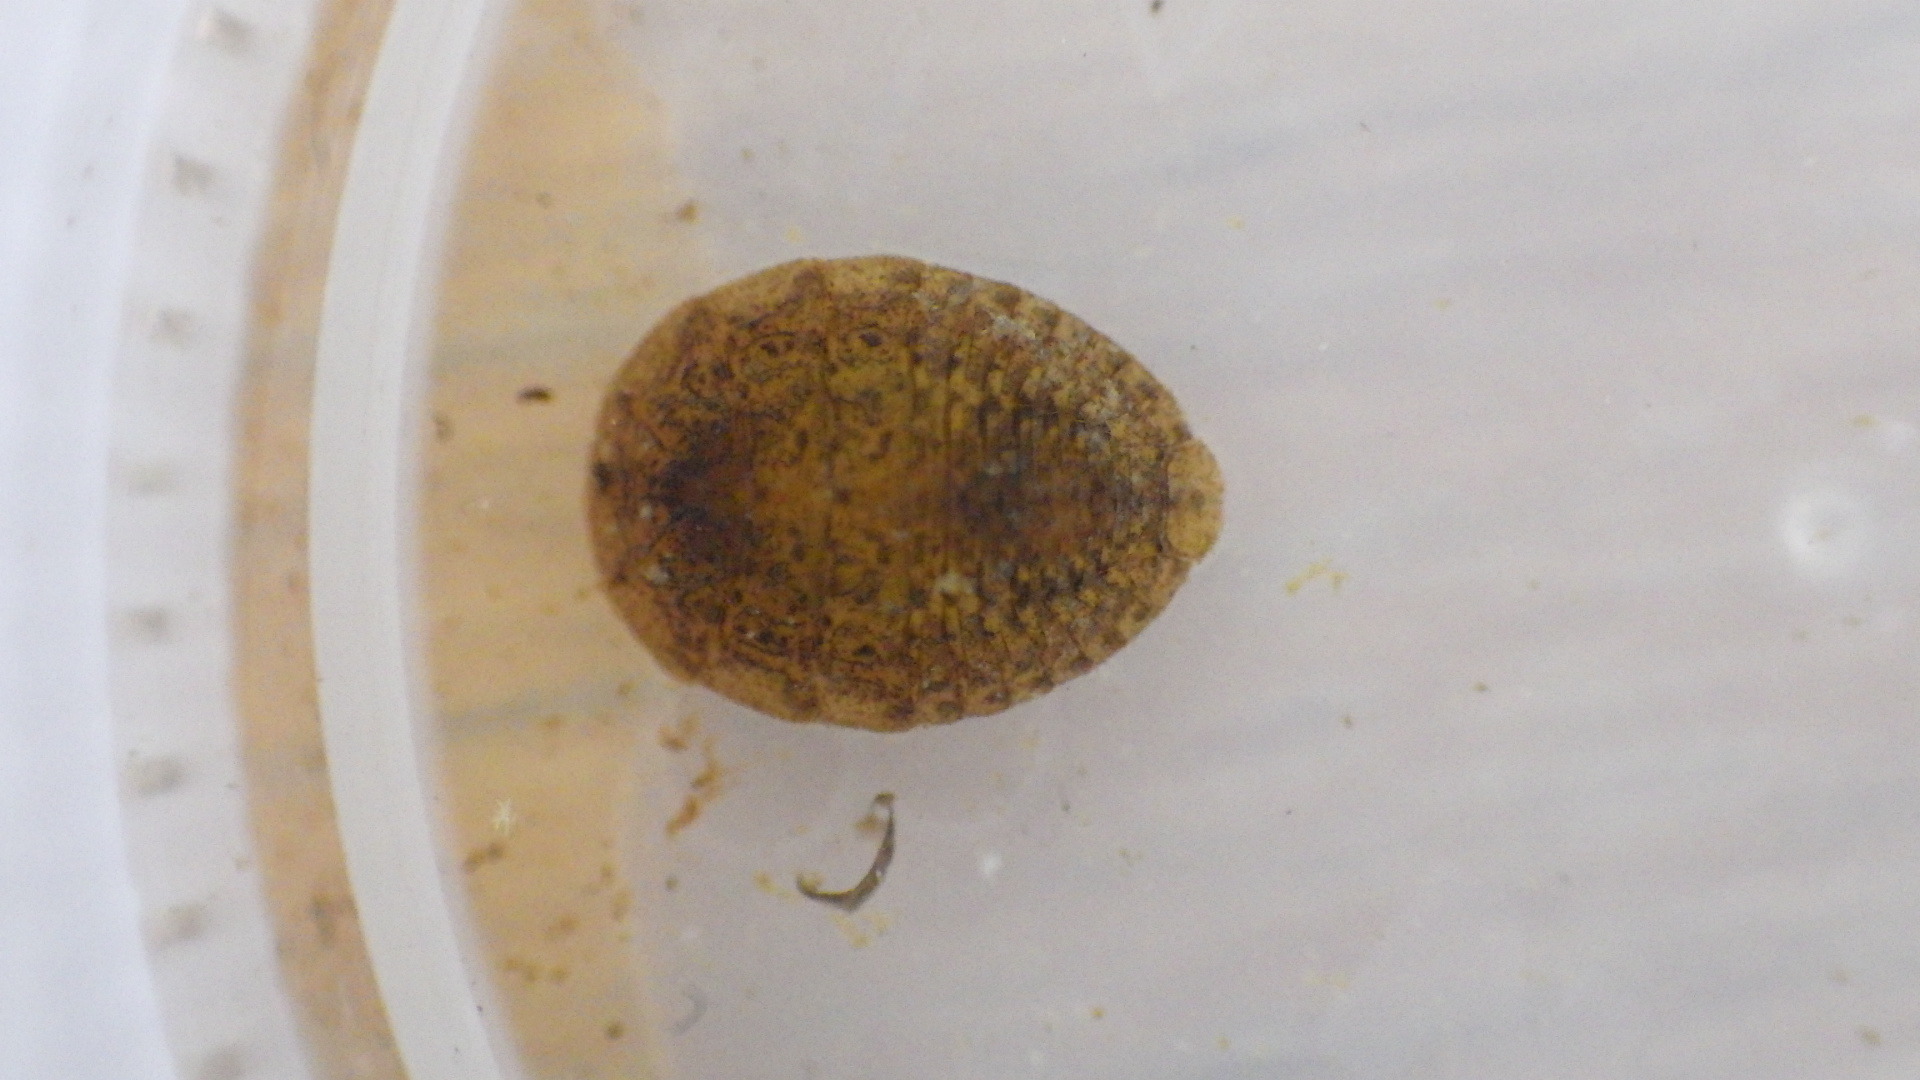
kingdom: Animalia
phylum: Arthropoda
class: Insecta
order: Coleoptera
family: Psephenidae
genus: Psephenus
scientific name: Psephenus herricki
